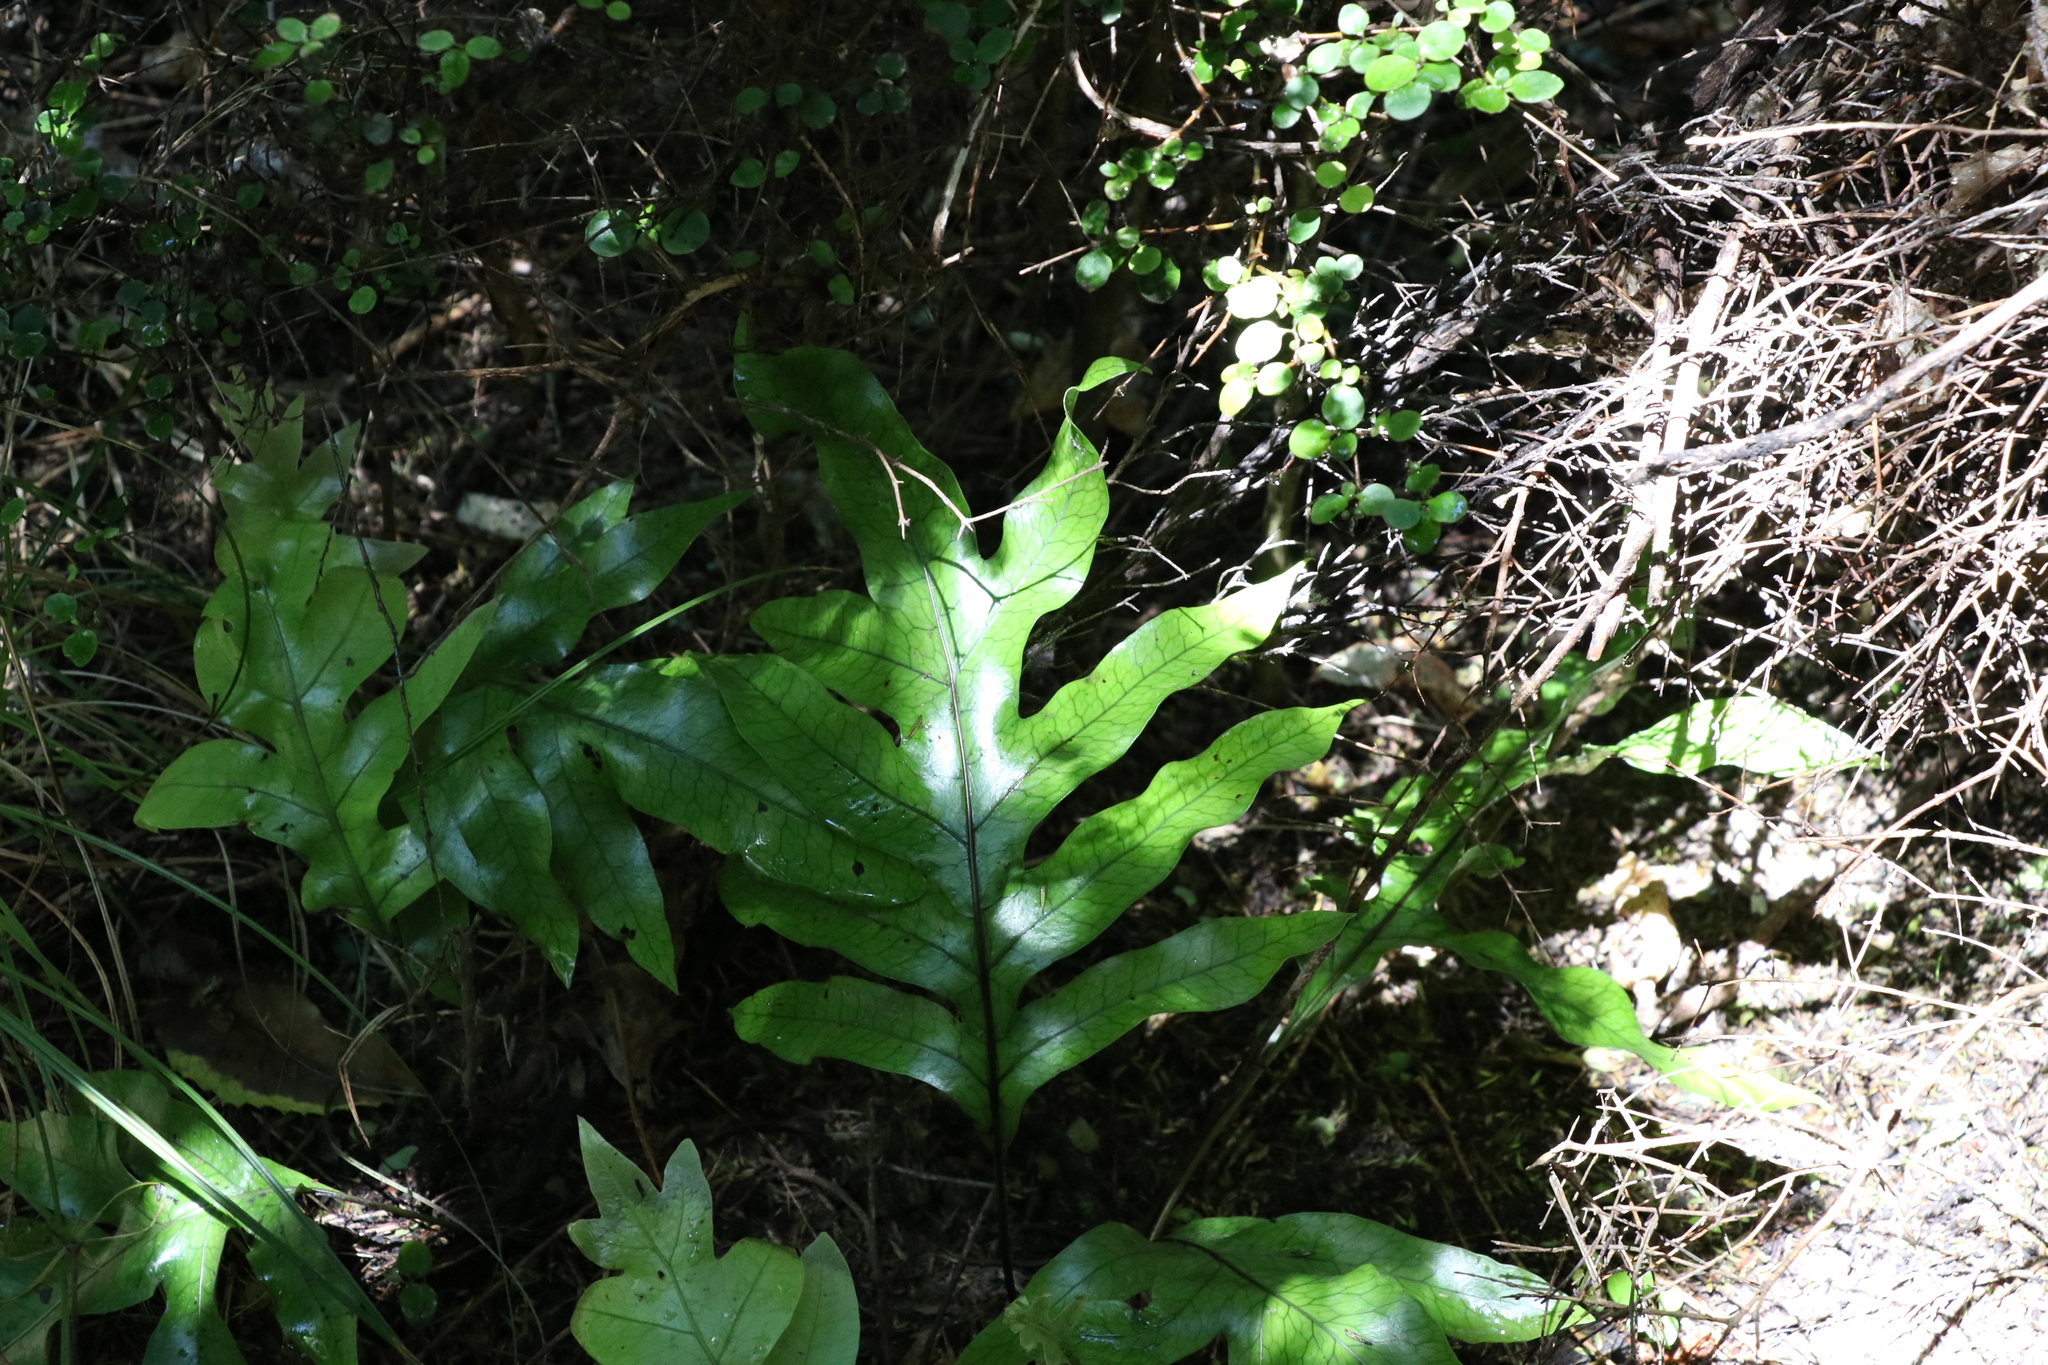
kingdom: Plantae
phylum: Tracheophyta
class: Polypodiopsida
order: Polypodiales
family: Polypodiaceae
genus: Lecanopteris
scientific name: Lecanopteris pustulata
